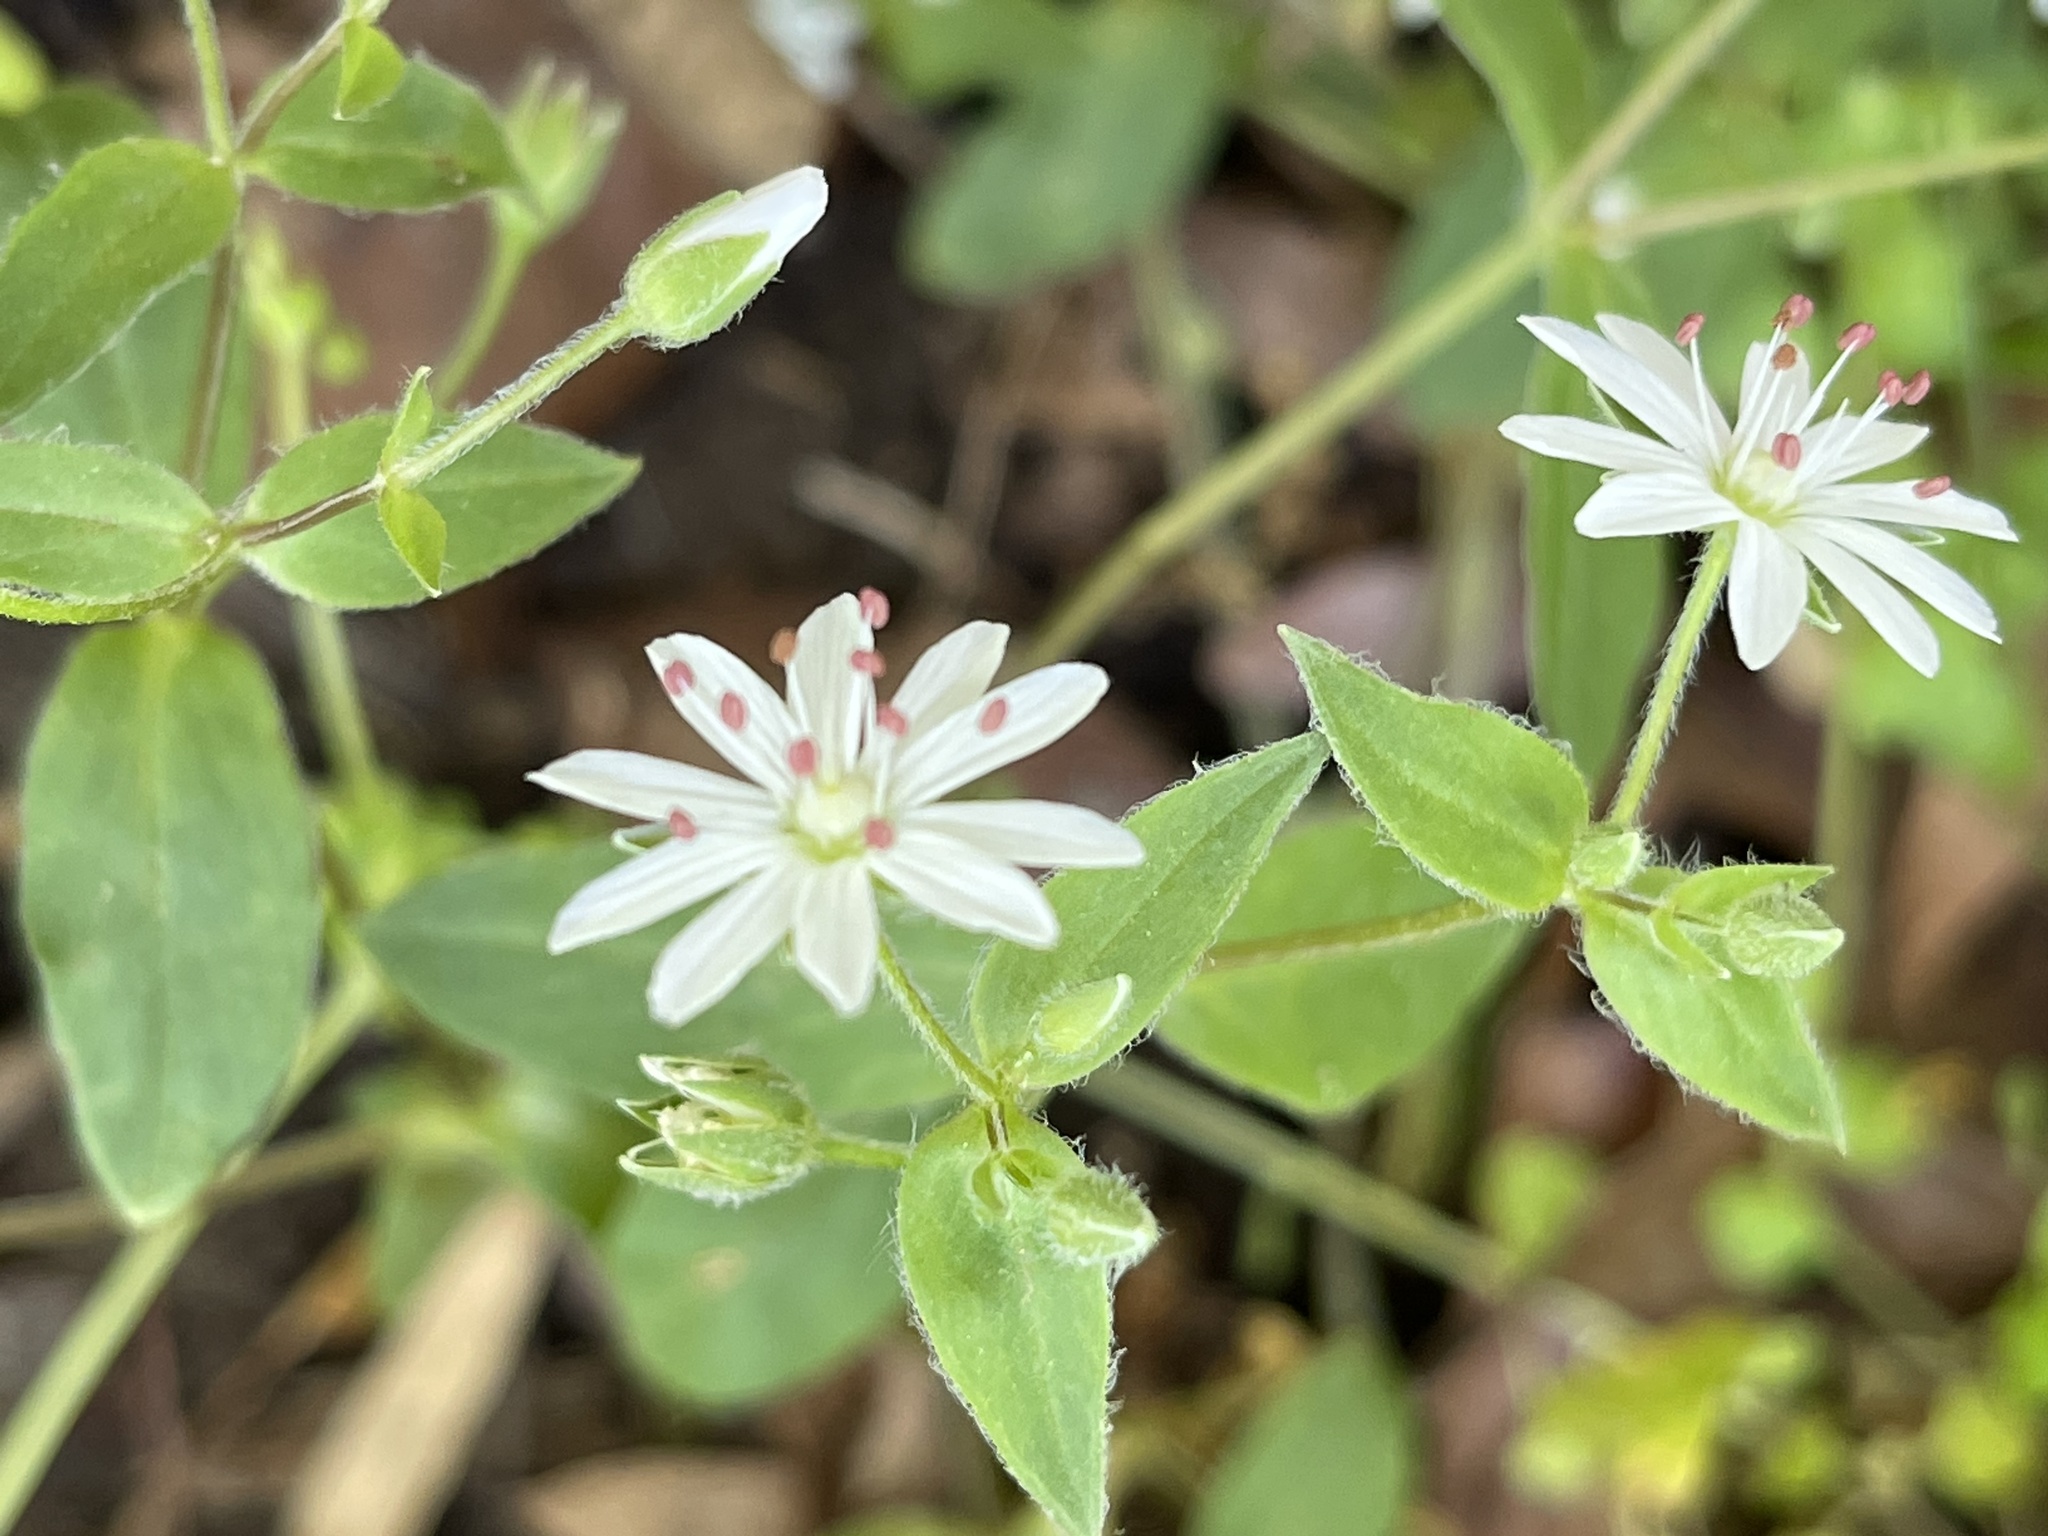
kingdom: Plantae
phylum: Tracheophyta
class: Magnoliopsida
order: Caryophyllales
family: Caryophyllaceae
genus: Stellaria
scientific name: Stellaria pubera
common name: Star chickweed
